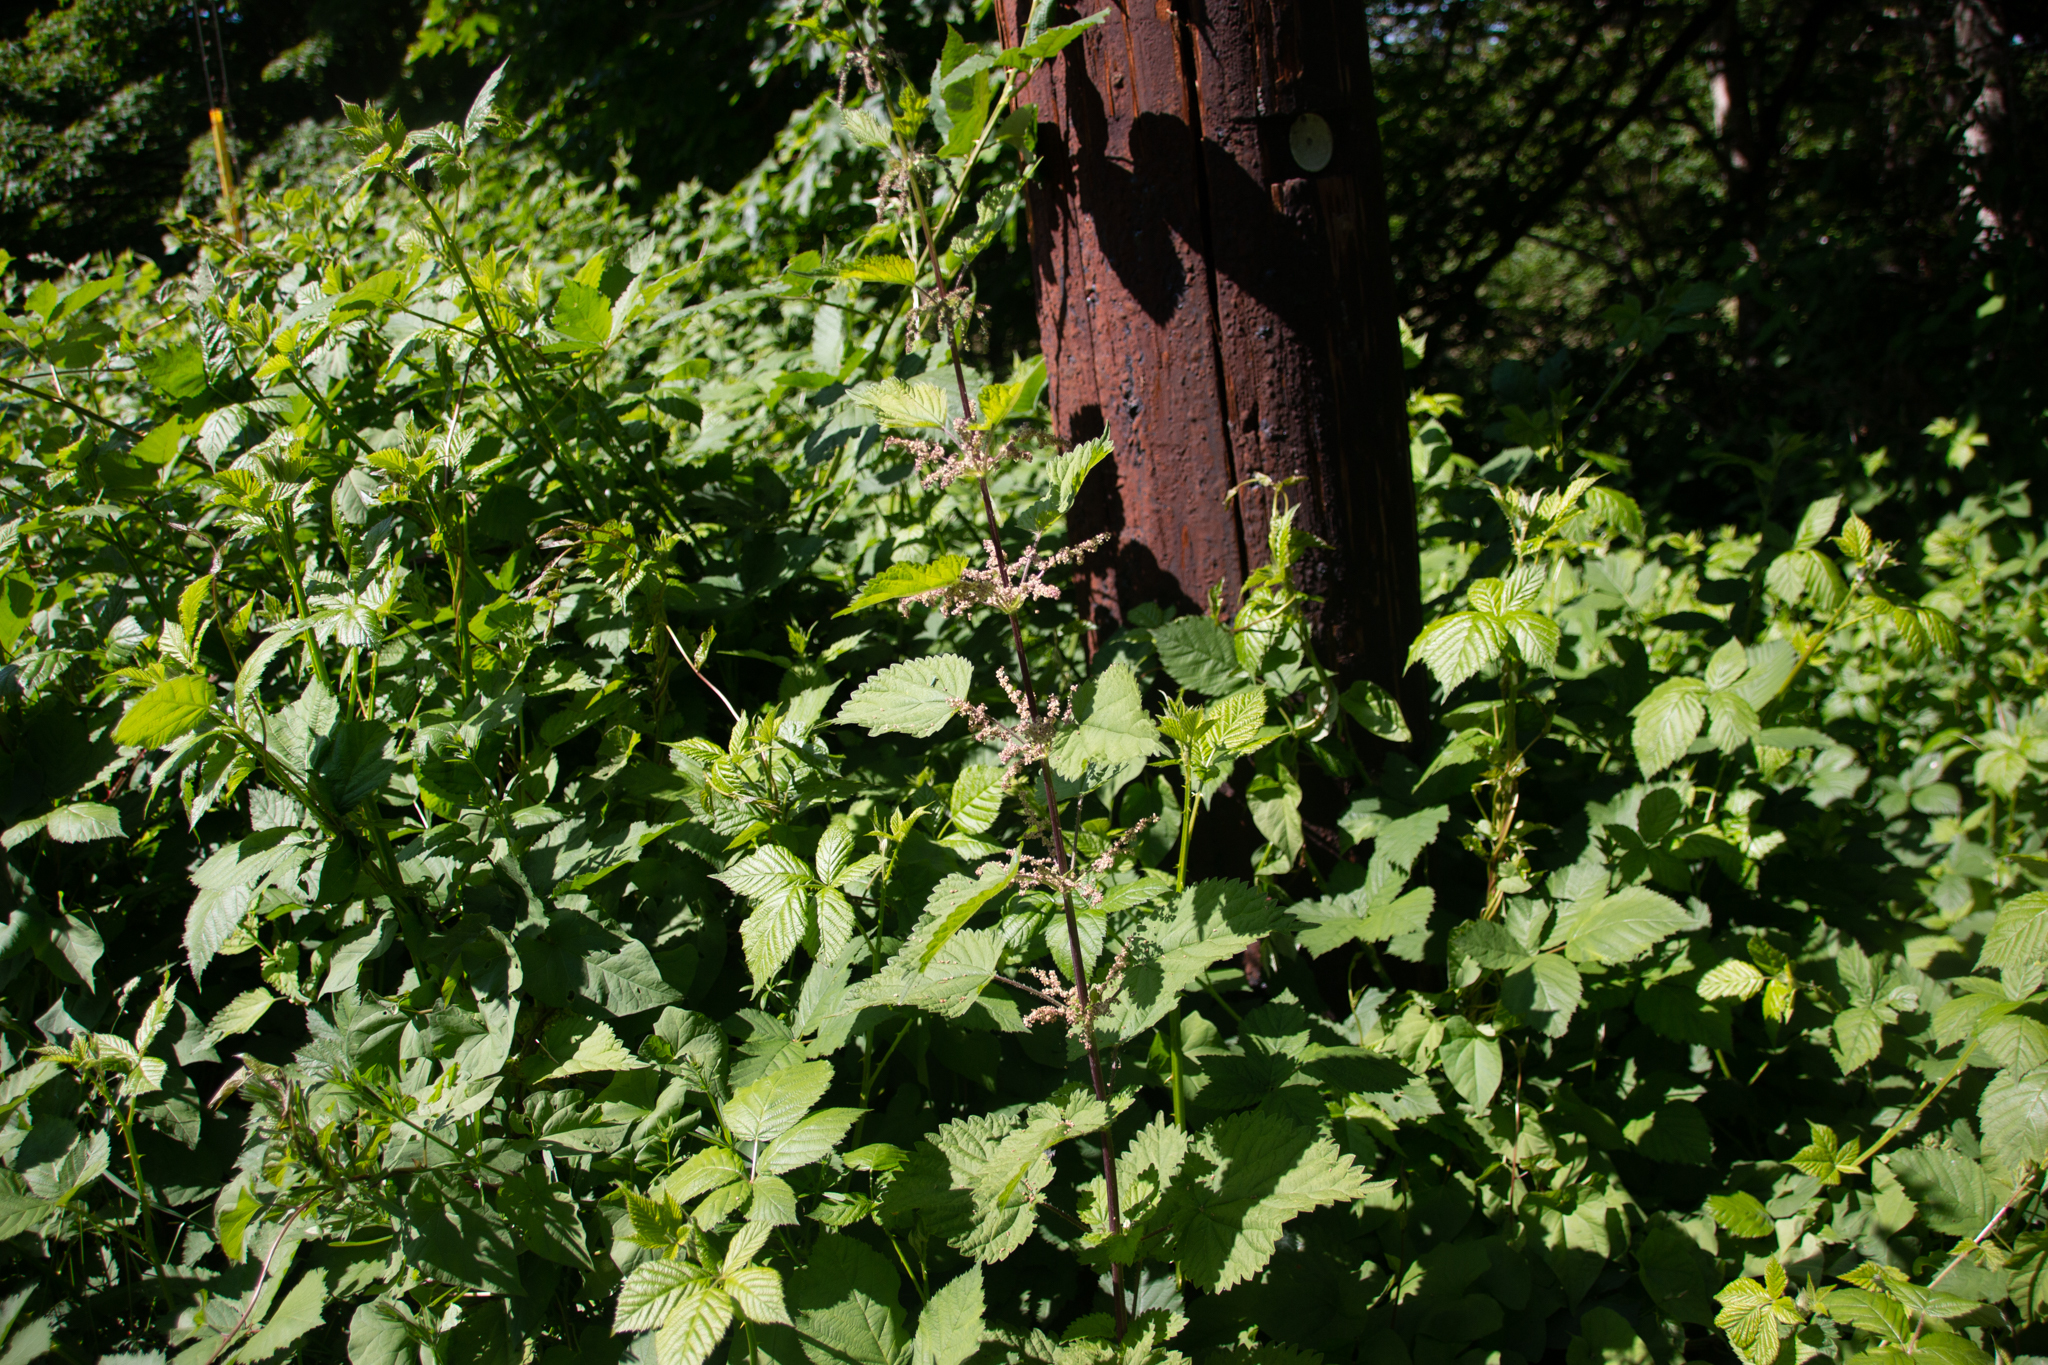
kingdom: Plantae
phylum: Tracheophyta
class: Magnoliopsida
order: Rosales
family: Urticaceae
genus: Urtica
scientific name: Urtica gracilis
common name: Slender stinging nettle
